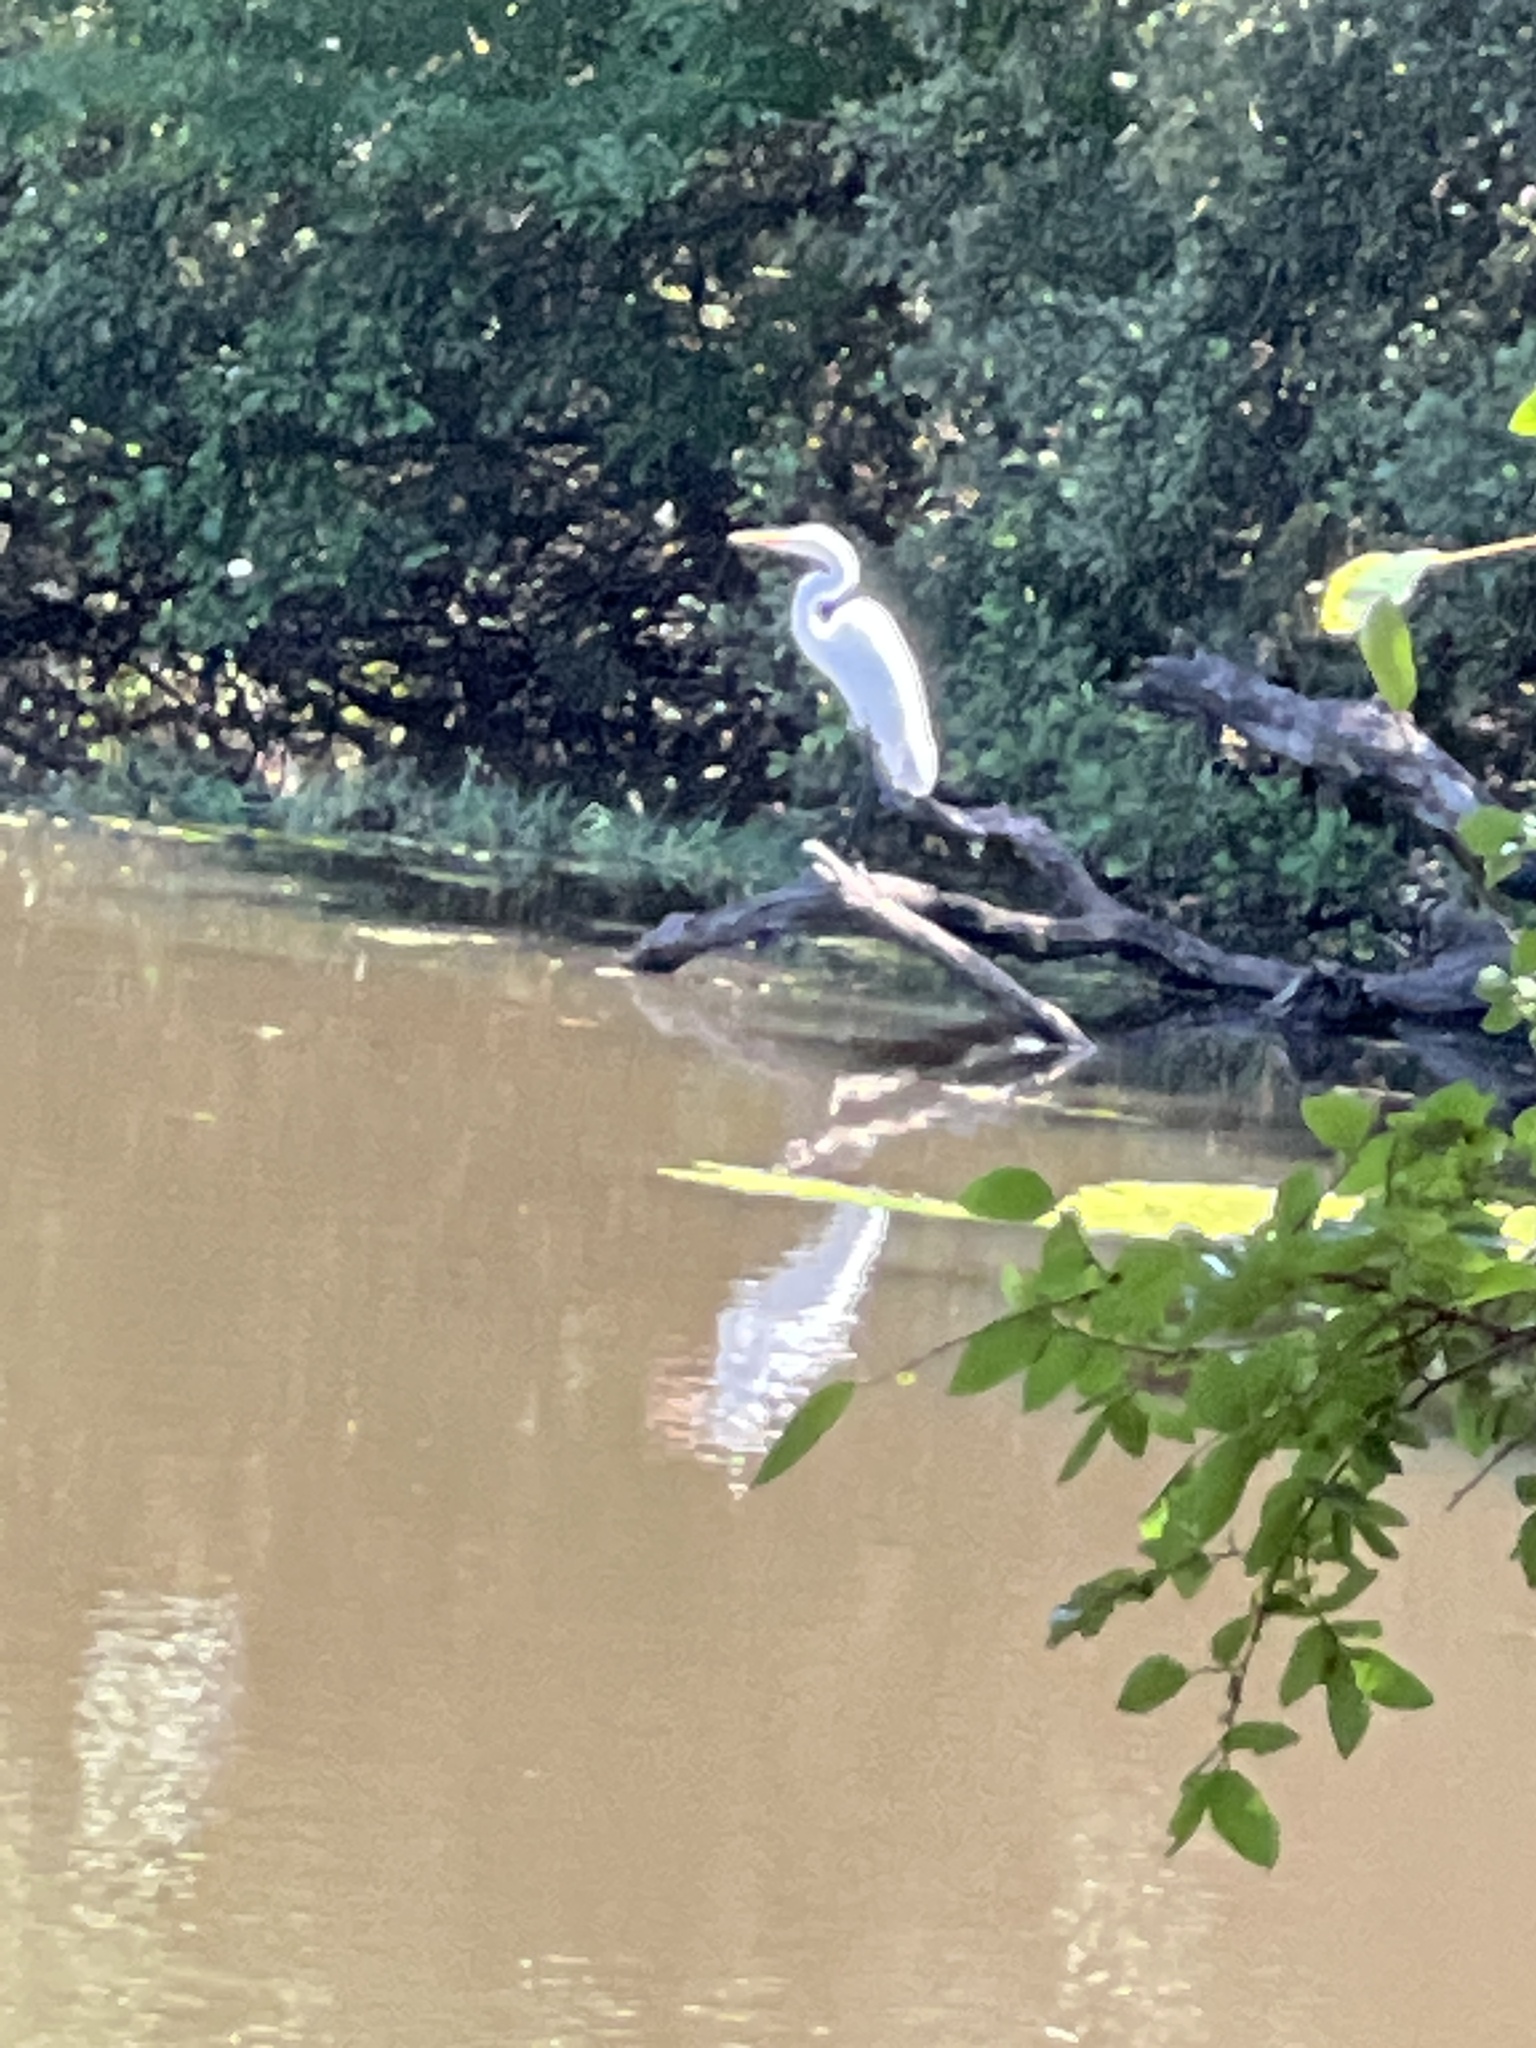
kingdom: Animalia
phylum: Chordata
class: Aves
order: Pelecaniformes
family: Ardeidae
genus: Ardea
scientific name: Ardea alba
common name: Great egret
